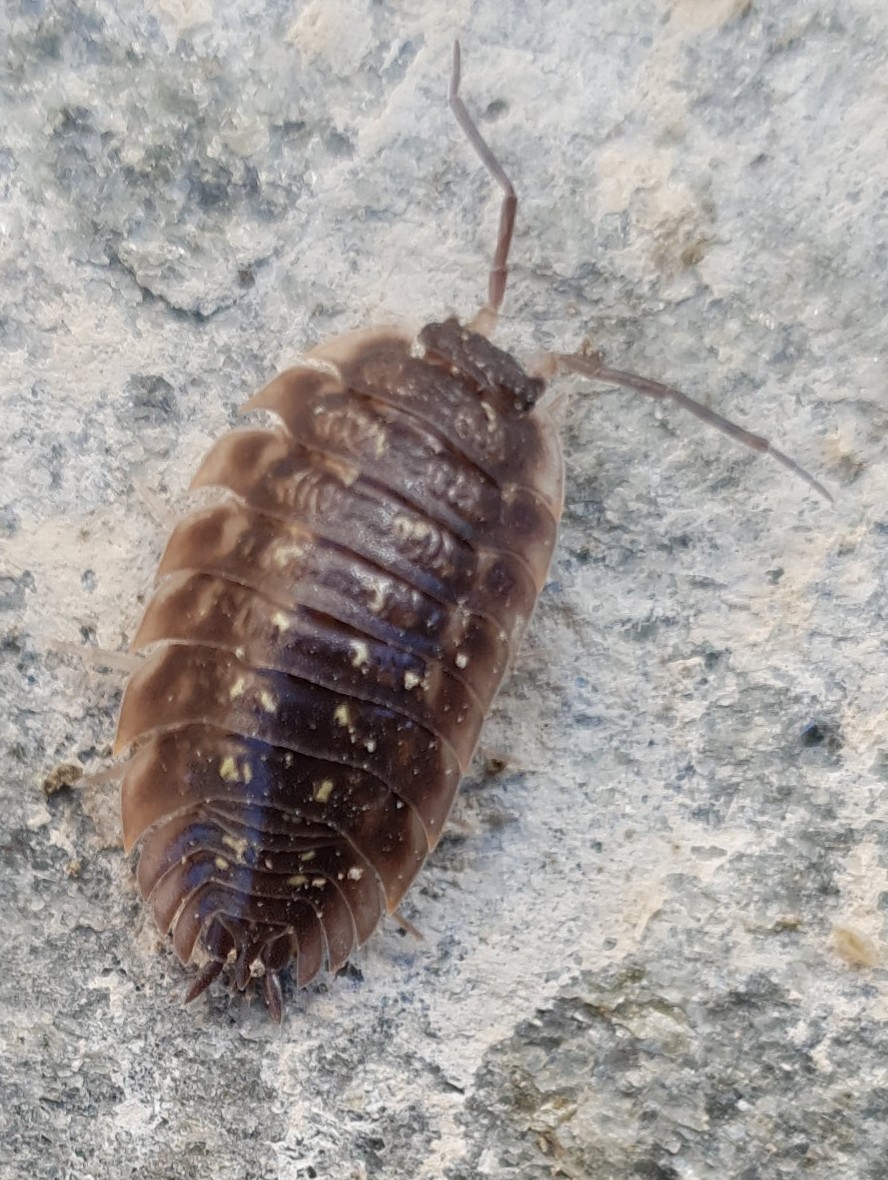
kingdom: Animalia
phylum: Arthropoda
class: Malacostraca
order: Isopoda
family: Oniscidae
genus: Oniscus
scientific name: Oniscus asellus
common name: Common shiny woodlouse
